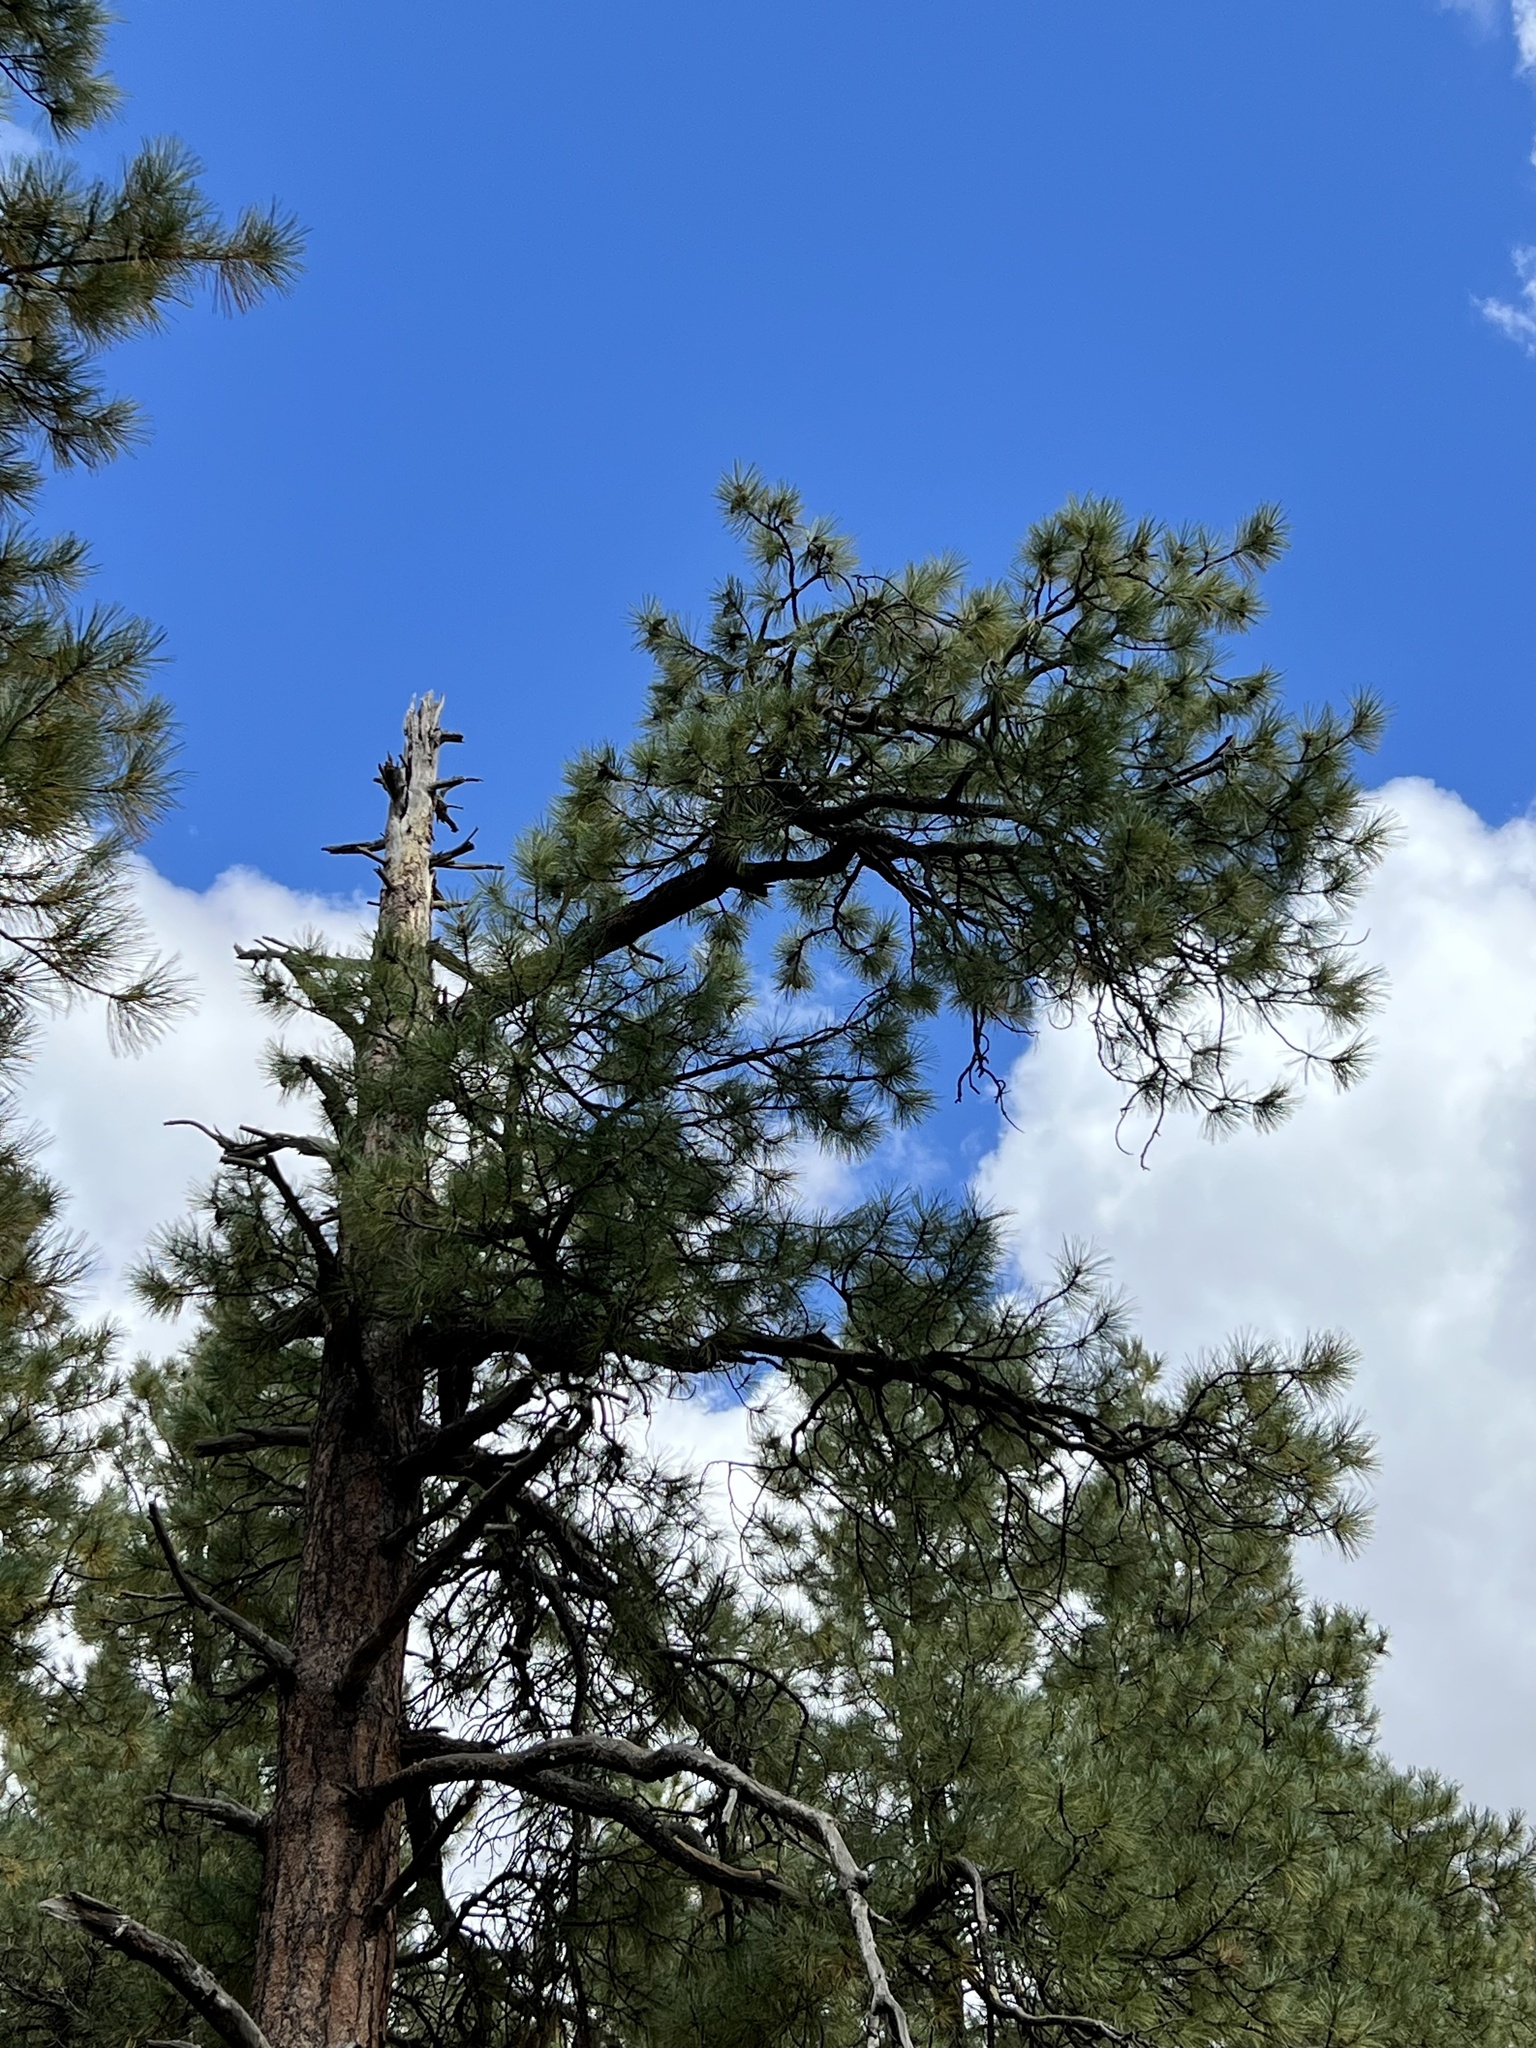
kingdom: Plantae
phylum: Tracheophyta
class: Pinopsida
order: Pinales
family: Pinaceae
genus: Pinus
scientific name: Pinus ponderosa
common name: Western yellow-pine
